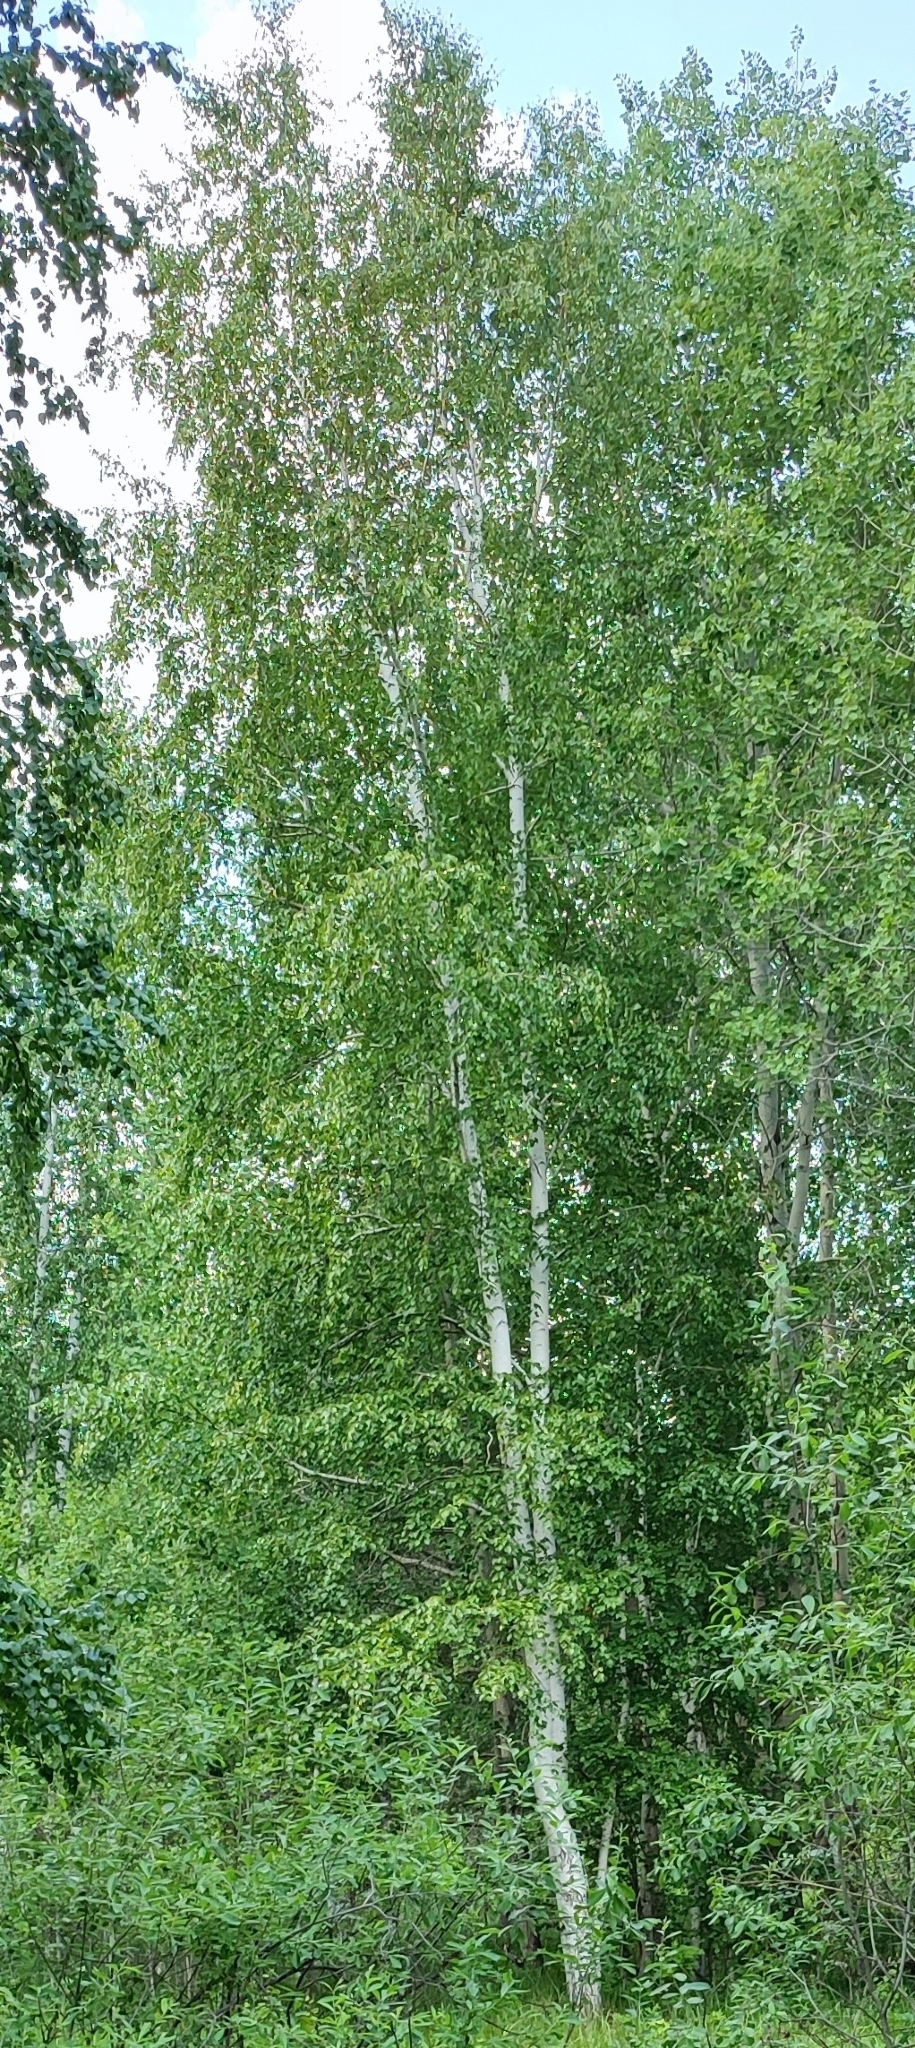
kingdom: Plantae
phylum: Tracheophyta
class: Magnoliopsida
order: Fagales
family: Betulaceae
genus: Betula
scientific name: Betula pendula
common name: Silver birch
